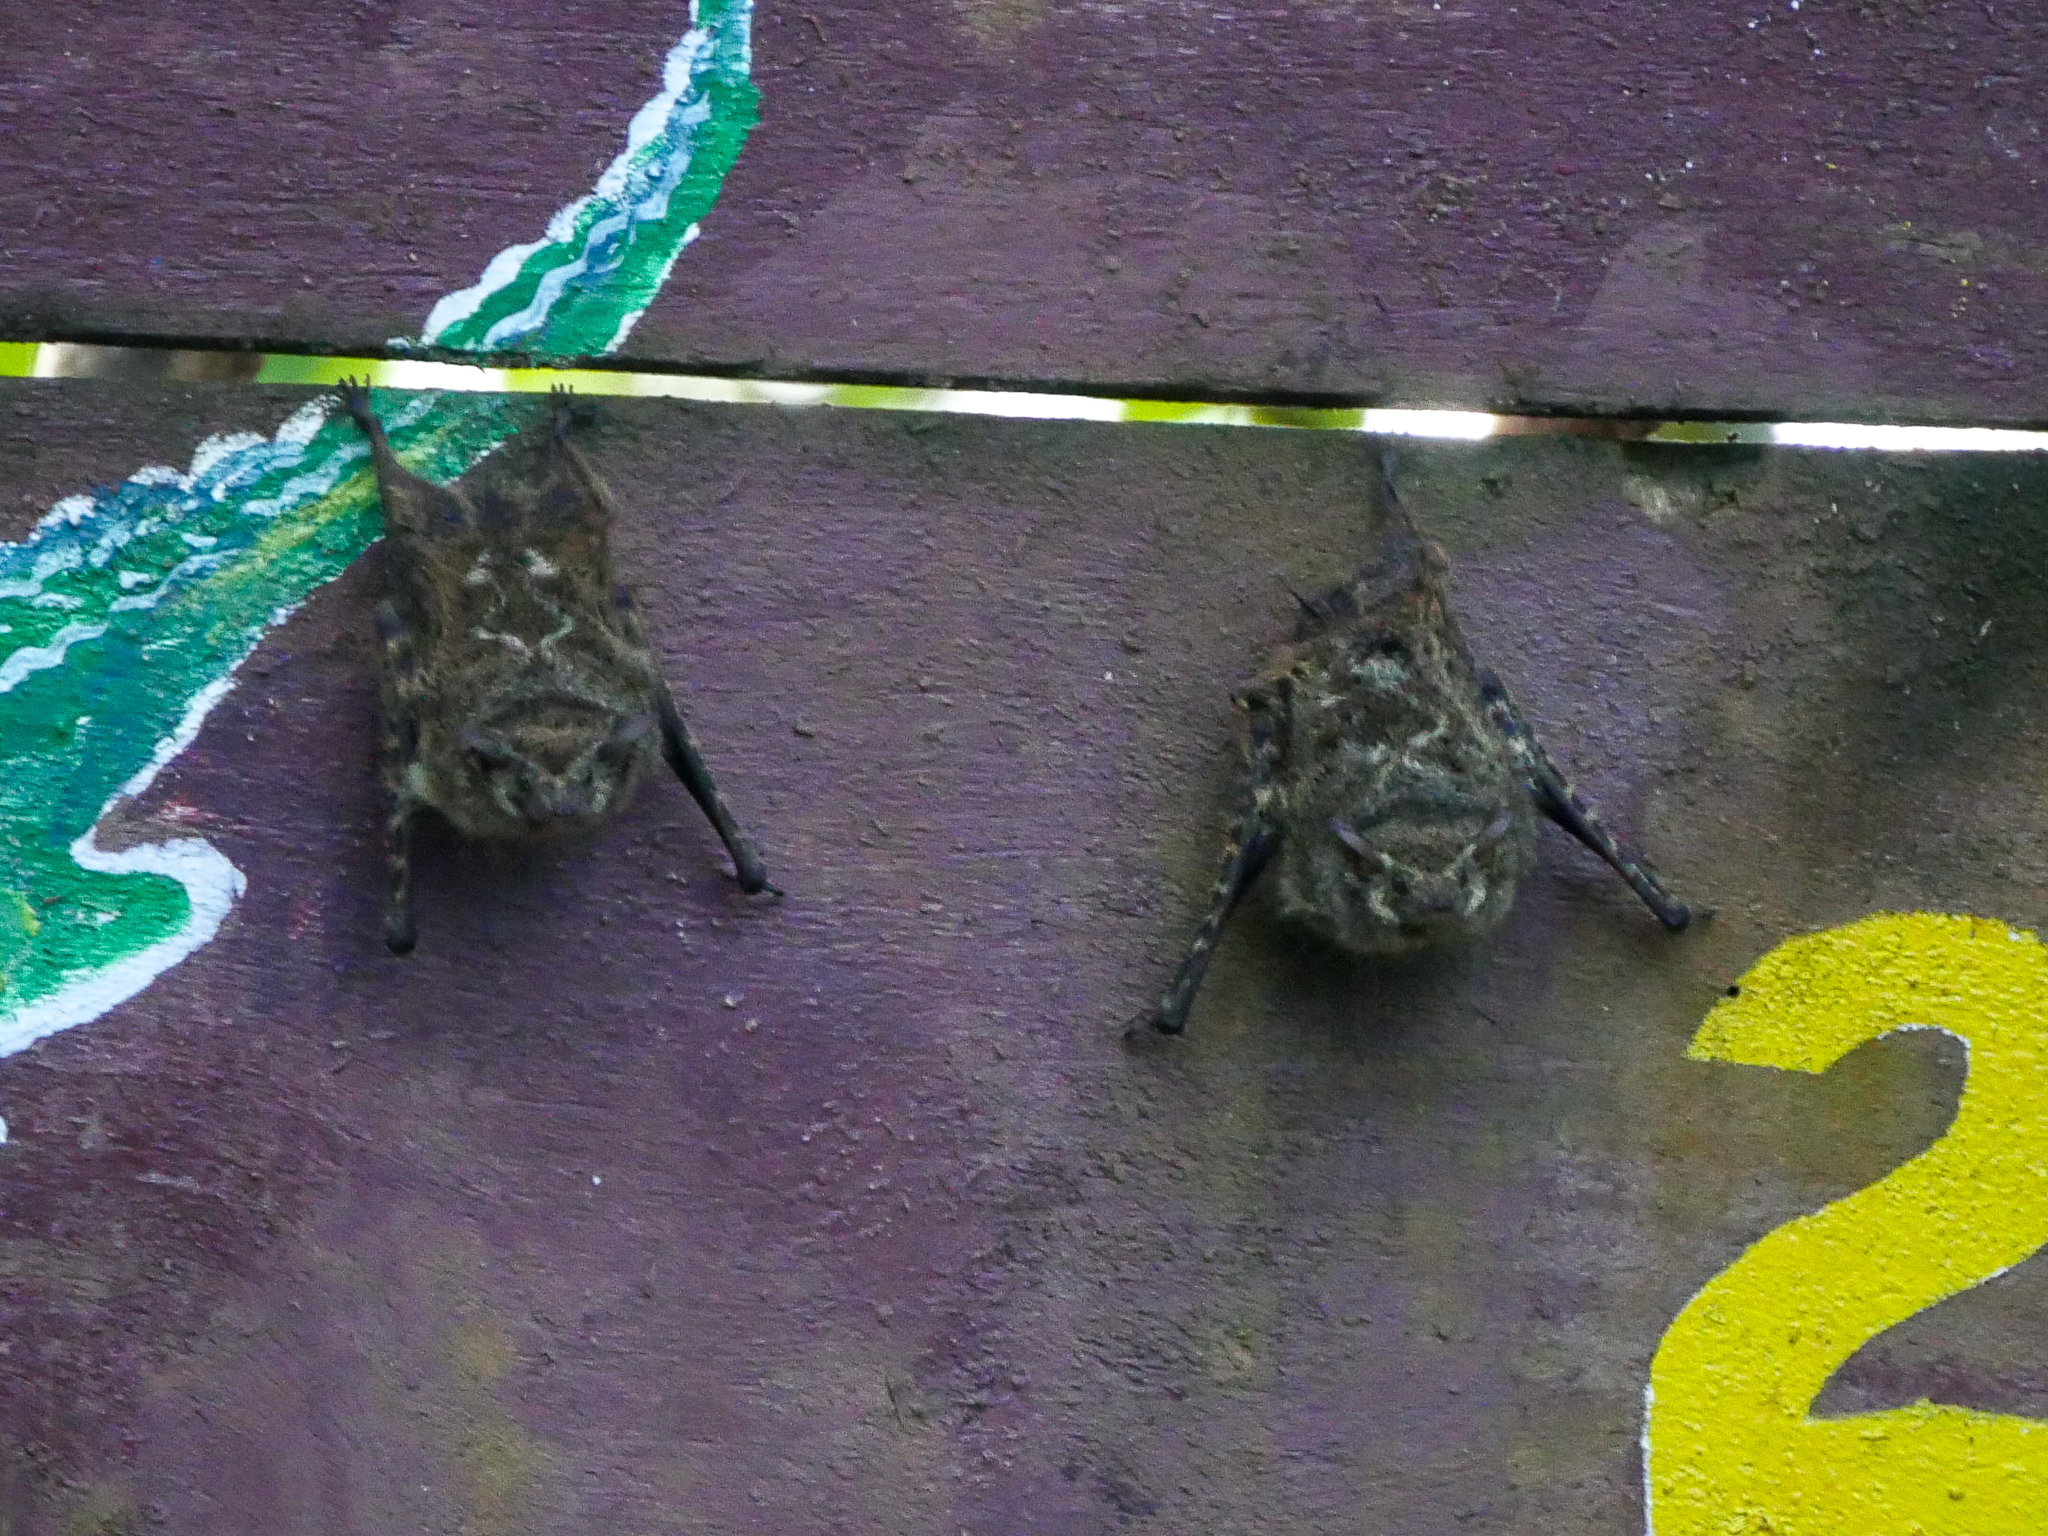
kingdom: Animalia
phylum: Chordata
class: Mammalia
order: Chiroptera
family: Emballonuridae
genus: Rhynchonycteris
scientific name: Rhynchonycteris naso
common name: Proboscis bat
